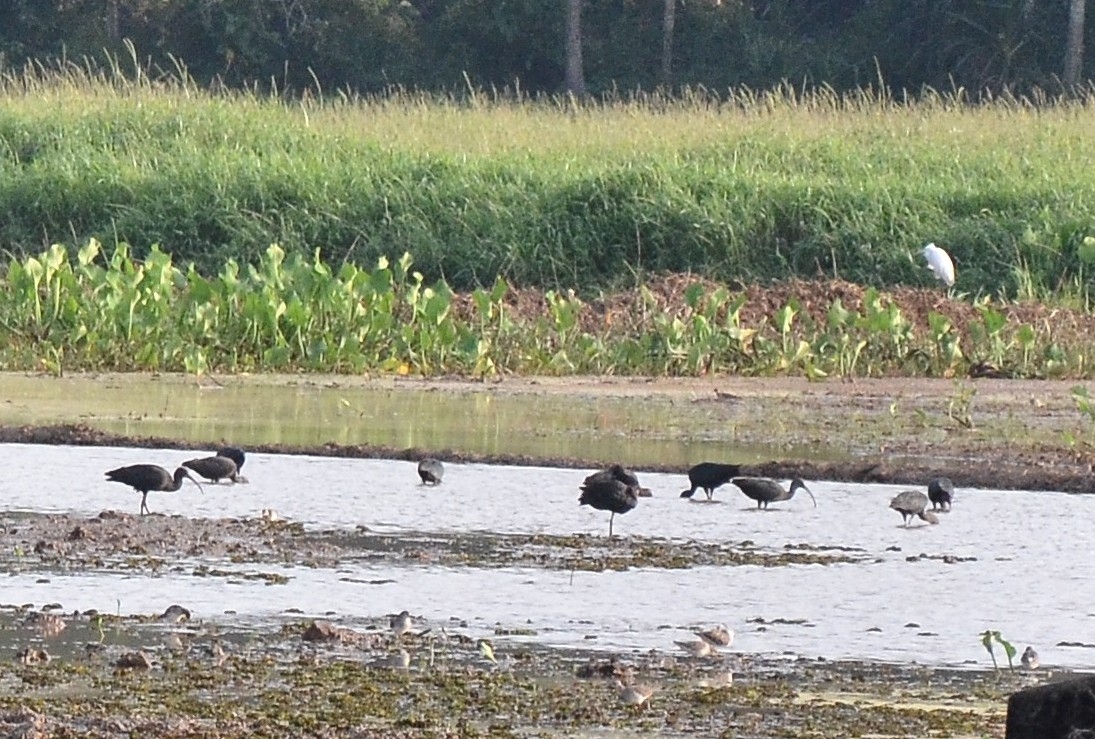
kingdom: Animalia
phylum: Chordata
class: Aves
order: Pelecaniformes
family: Threskiornithidae
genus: Plegadis
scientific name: Plegadis falcinellus
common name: Glossy ibis
